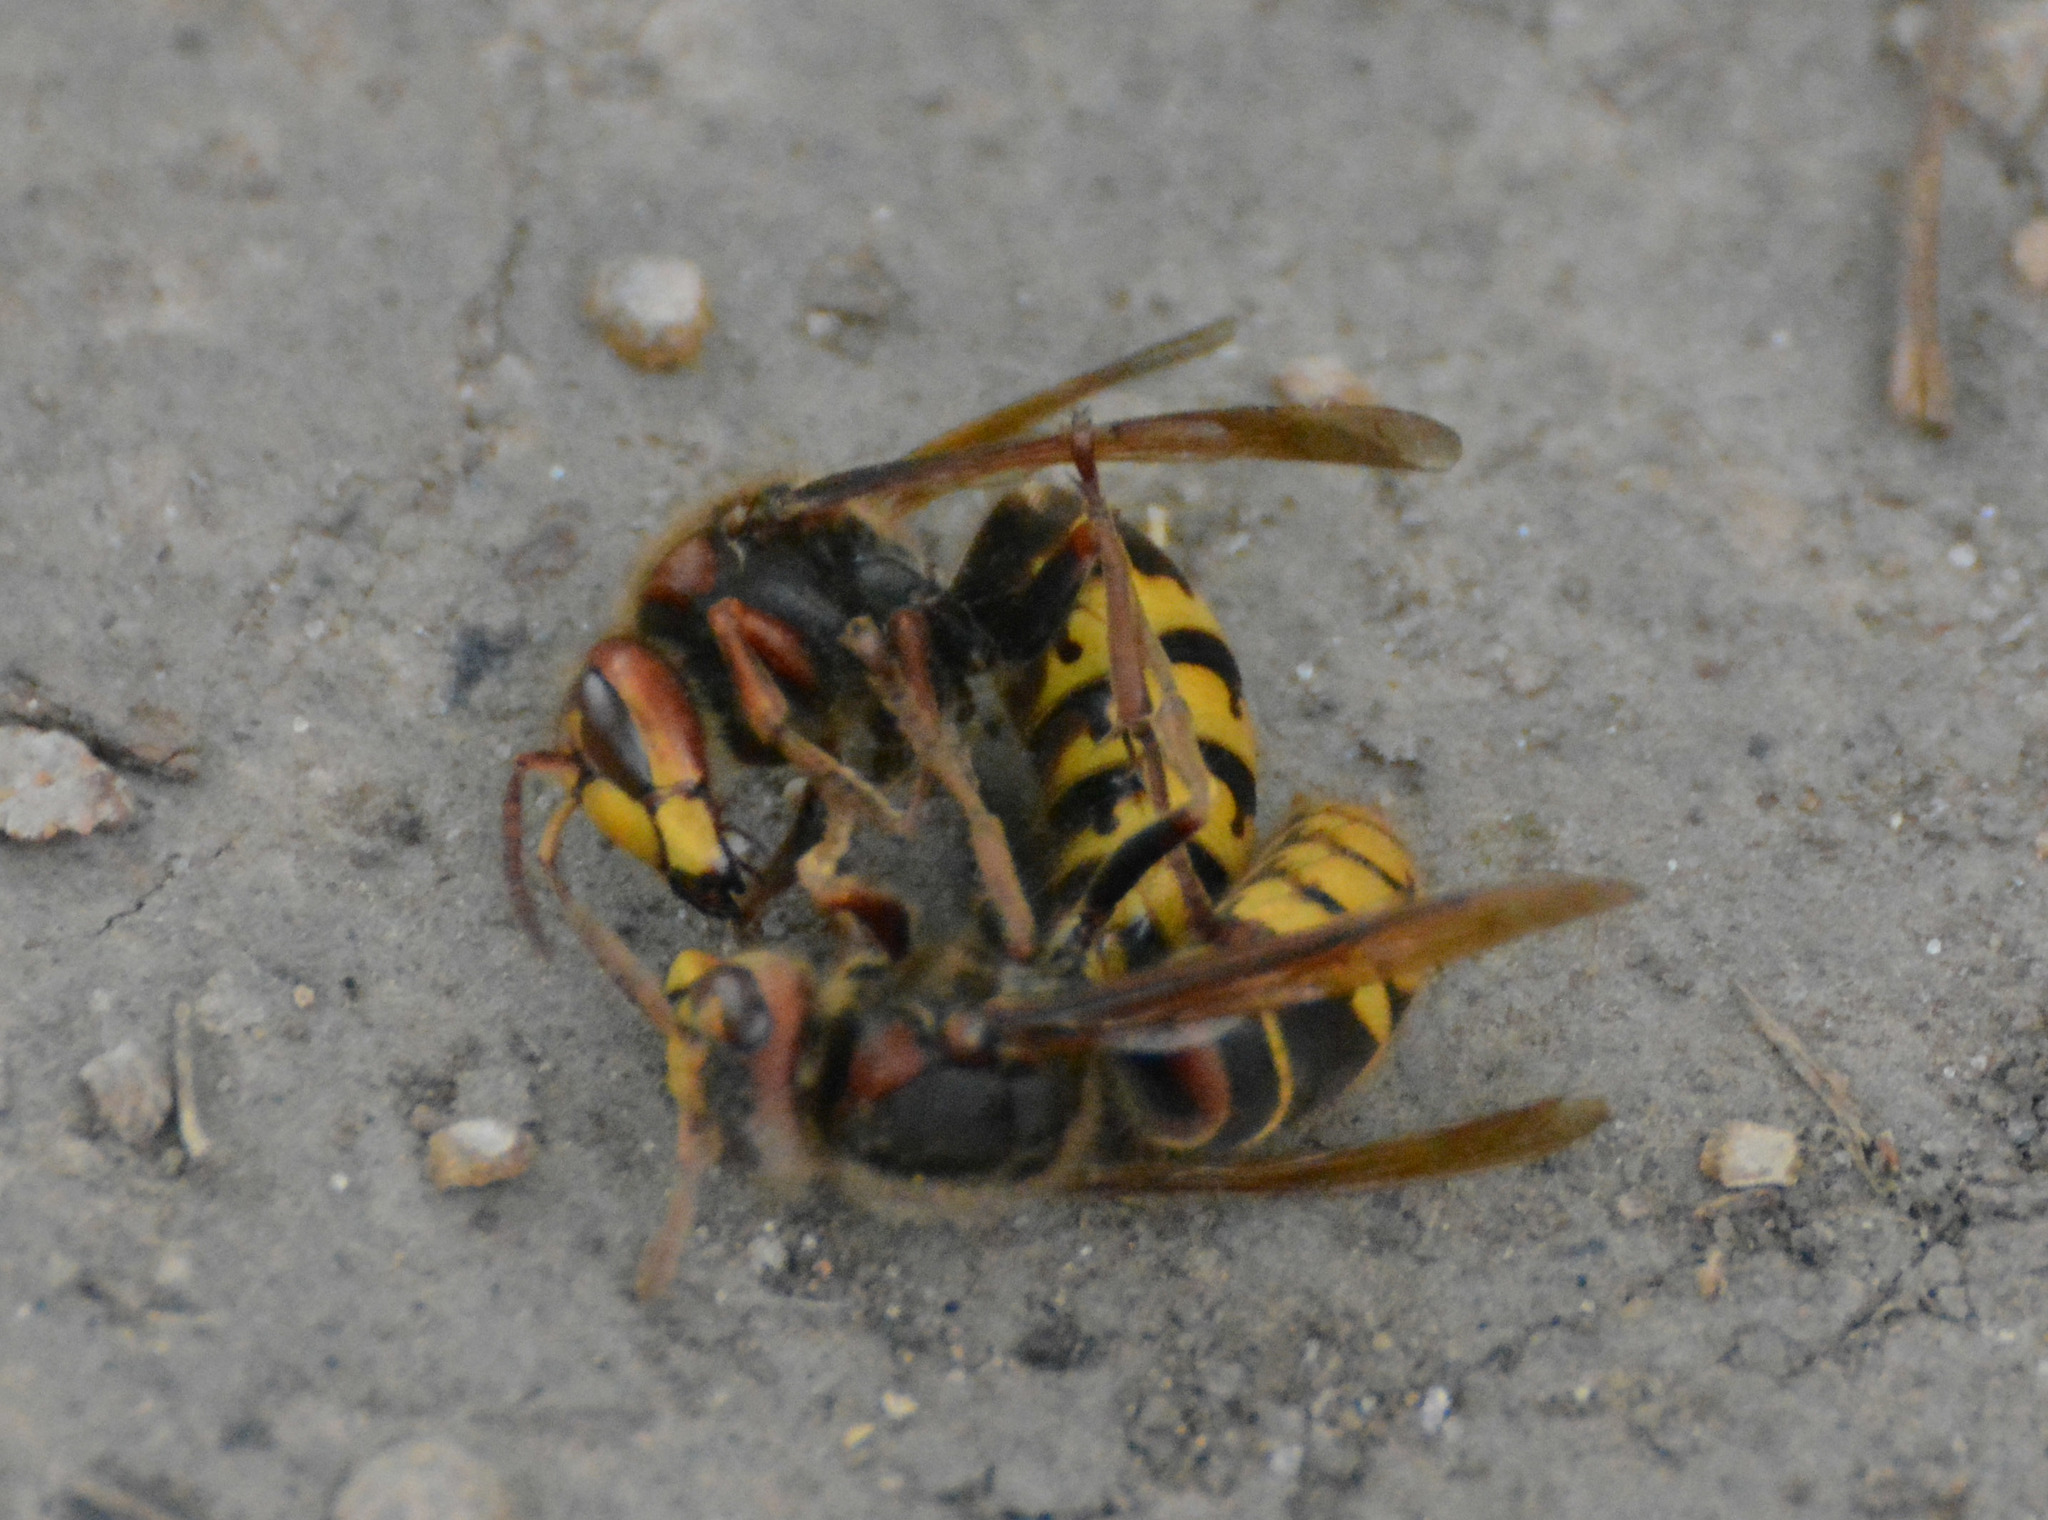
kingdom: Animalia
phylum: Arthropoda
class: Insecta
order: Hymenoptera
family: Vespidae
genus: Vespa
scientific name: Vespa crabro
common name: Hornet
